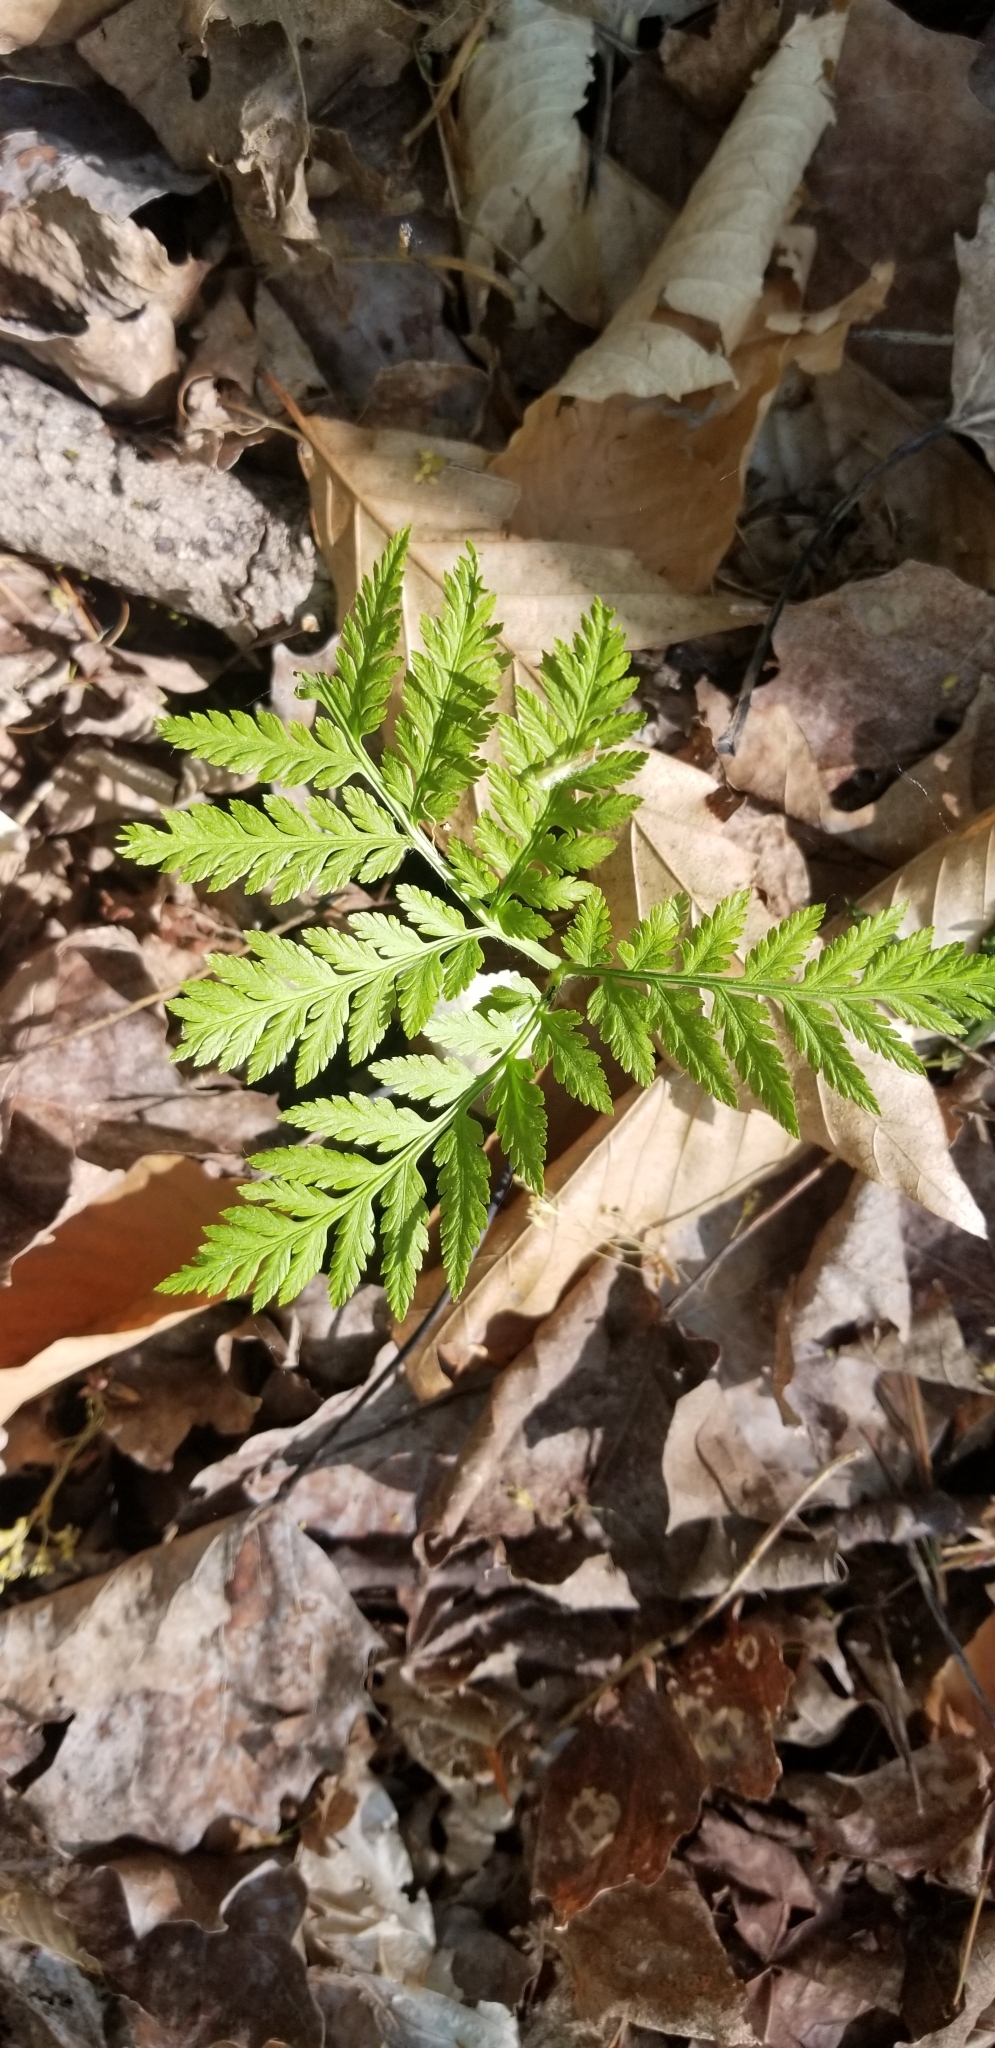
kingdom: Plantae
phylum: Tracheophyta
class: Polypodiopsida
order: Ophioglossales
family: Ophioglossaceae
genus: Botrypus
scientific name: Botrypus virginianus
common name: Common grapefern
